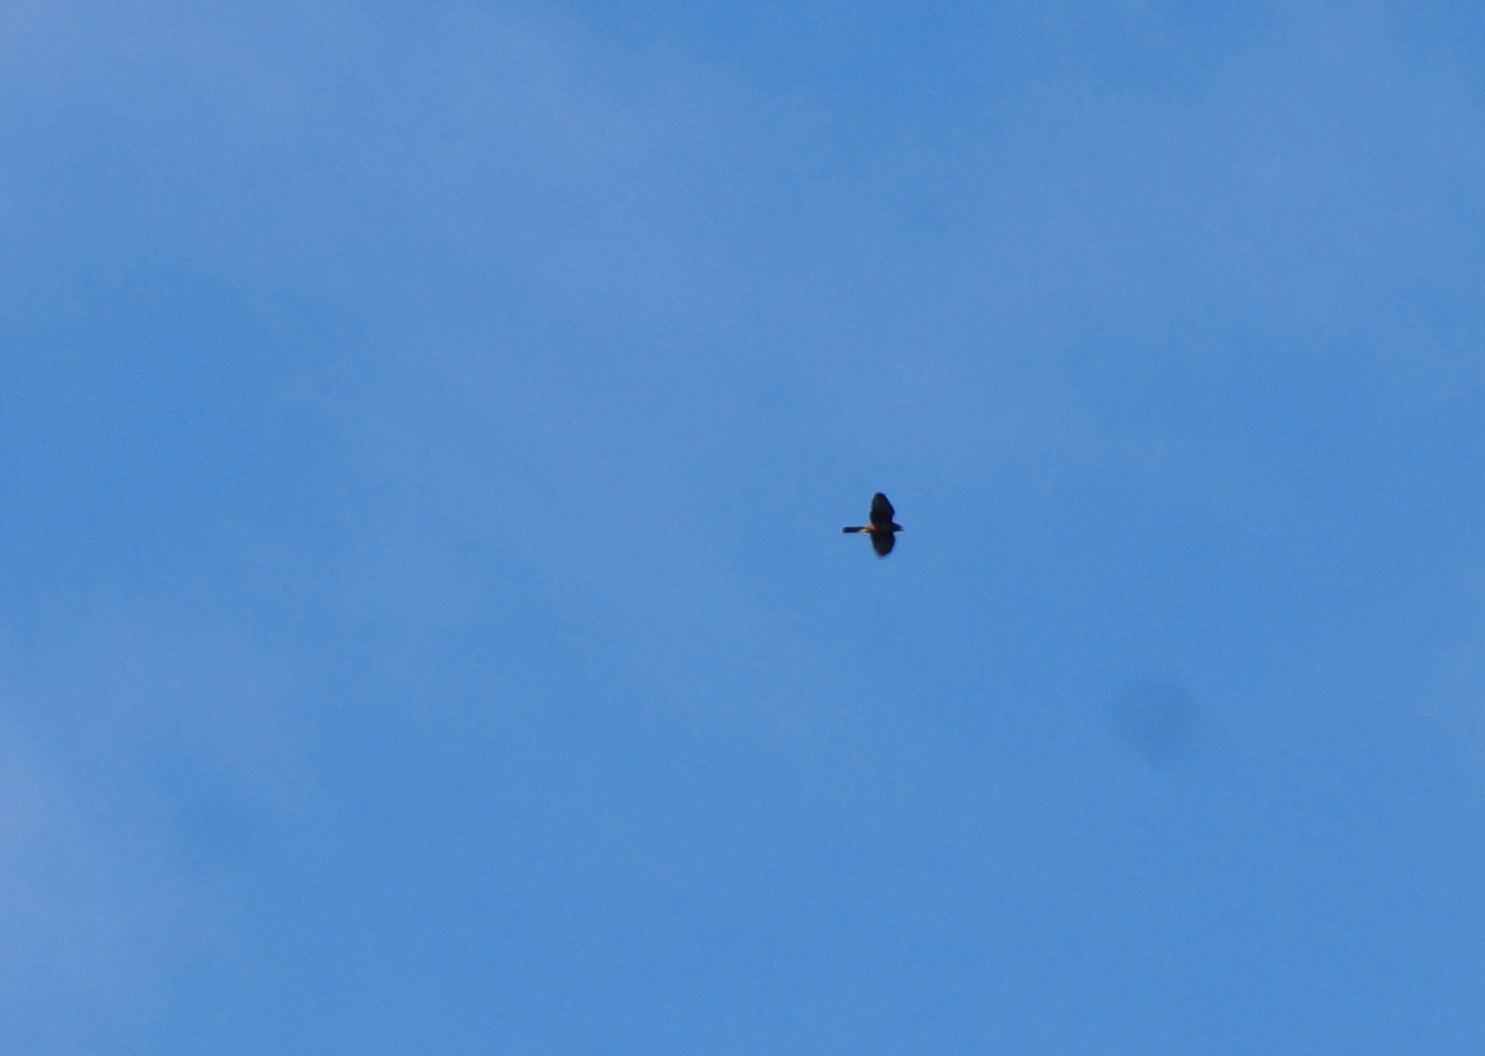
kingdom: Animalia
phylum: Chordata
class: Aves
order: Falconiformes
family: Falconidae
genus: Falco
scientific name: Falco novaeseelandiae
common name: New zealand falcon
